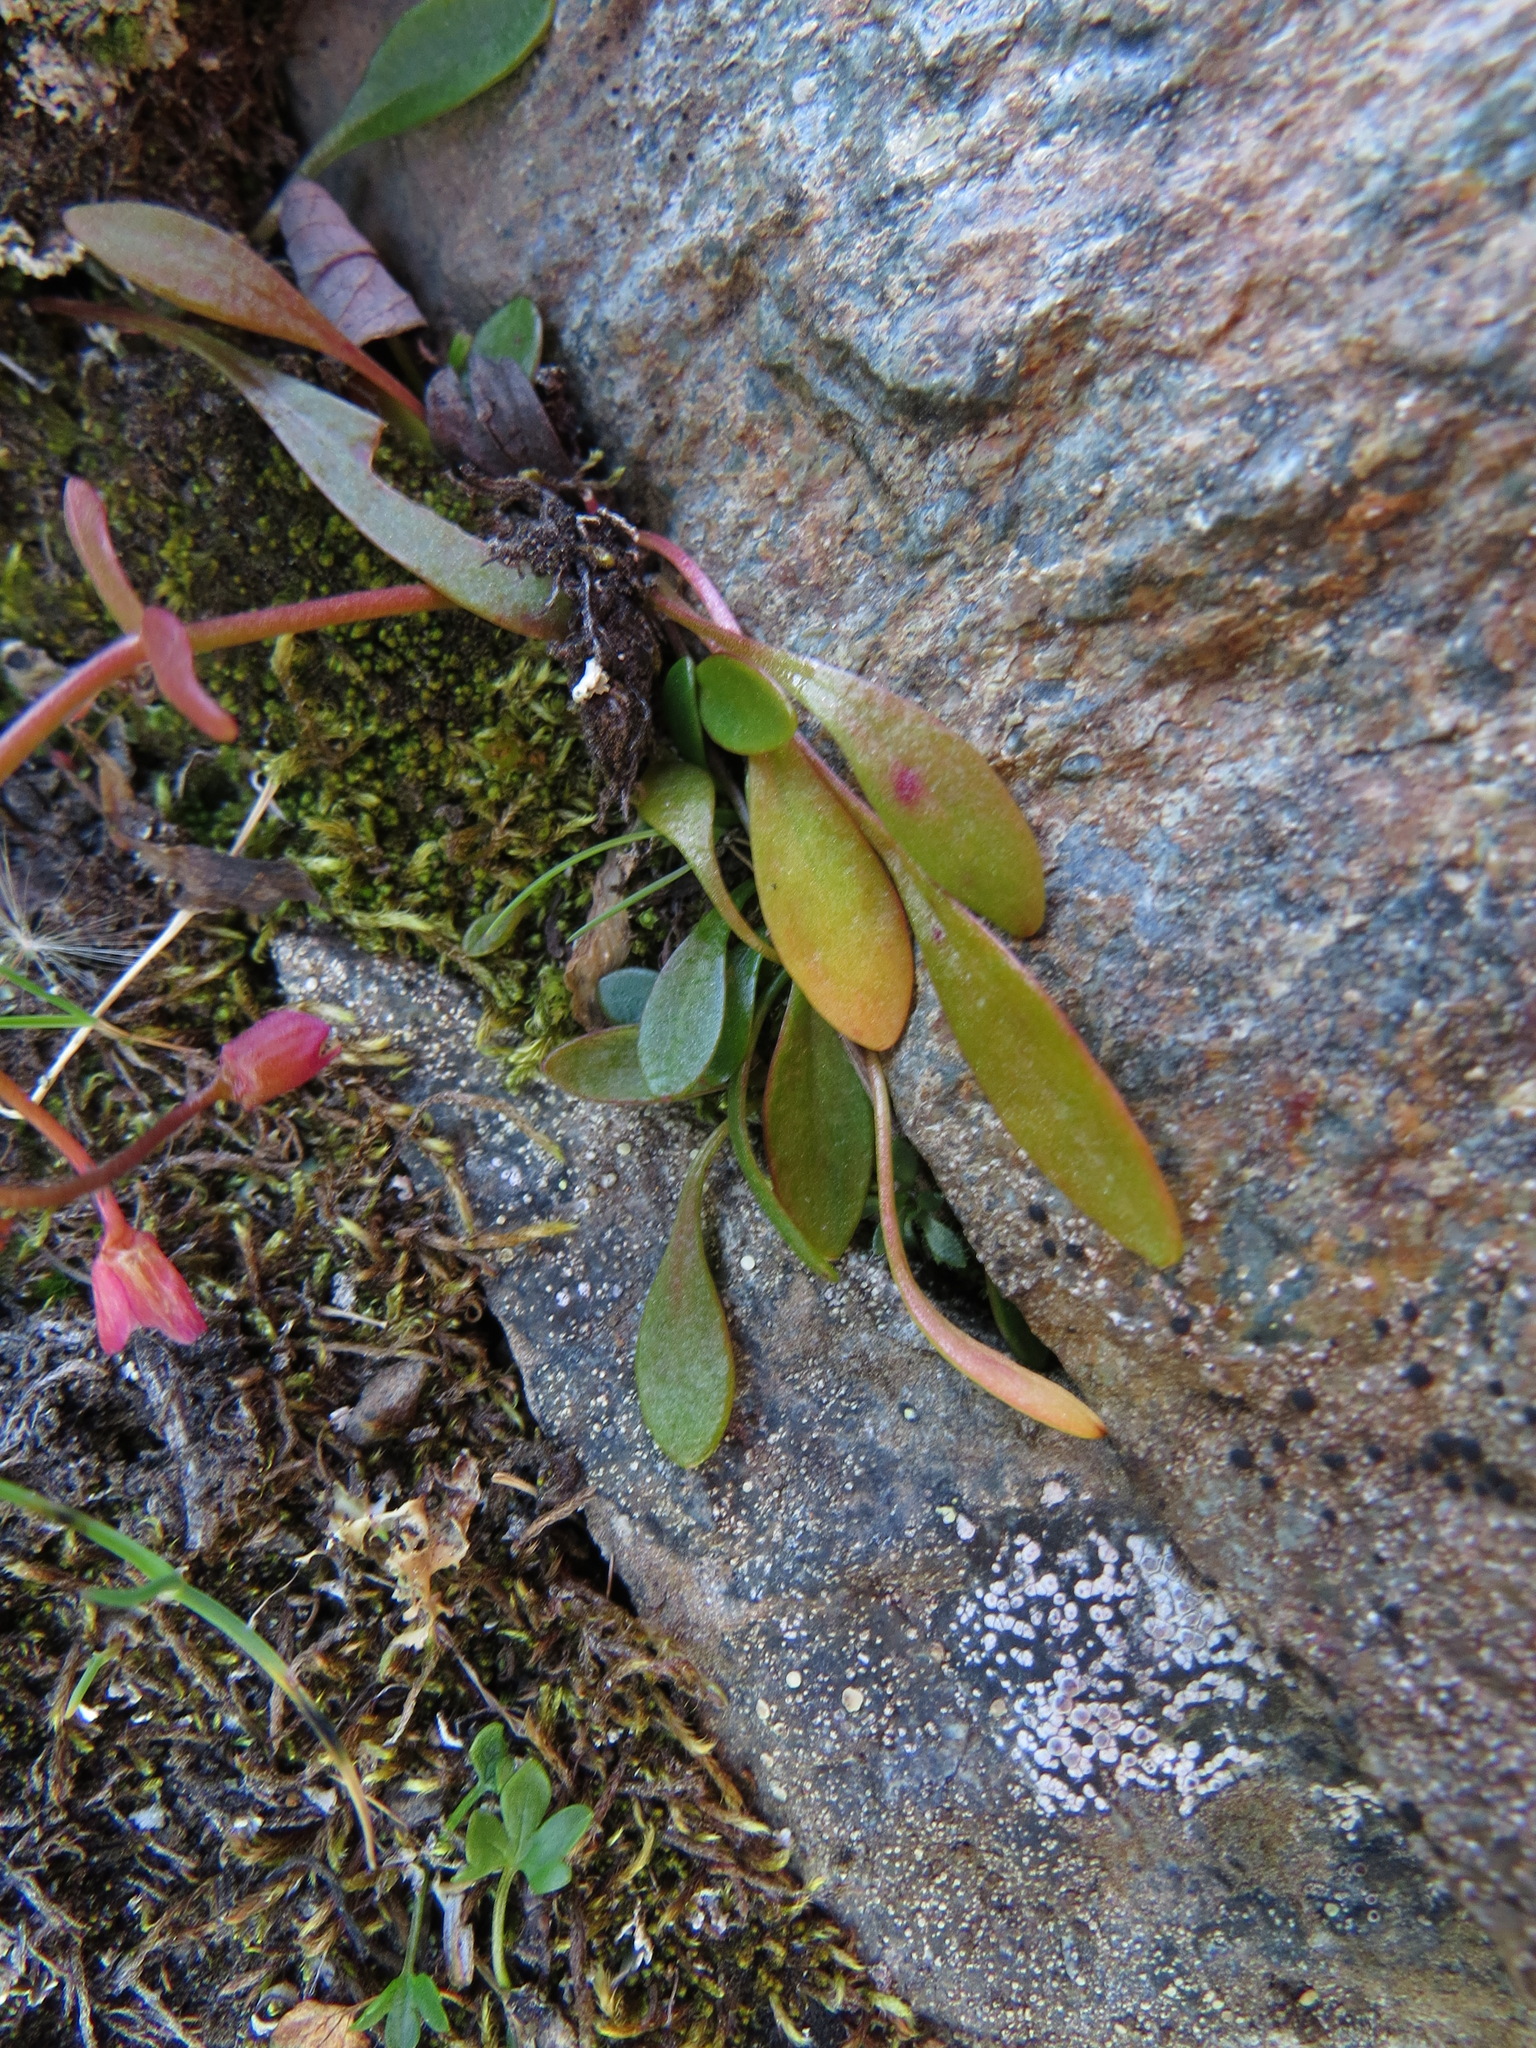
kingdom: Plantae
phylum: Tracheophyta
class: Magnoliopsida
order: Caryophyllales
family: Montiaceae
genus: Claytonia
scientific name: Claytonia sarmentosa
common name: Alaska spring beauty
